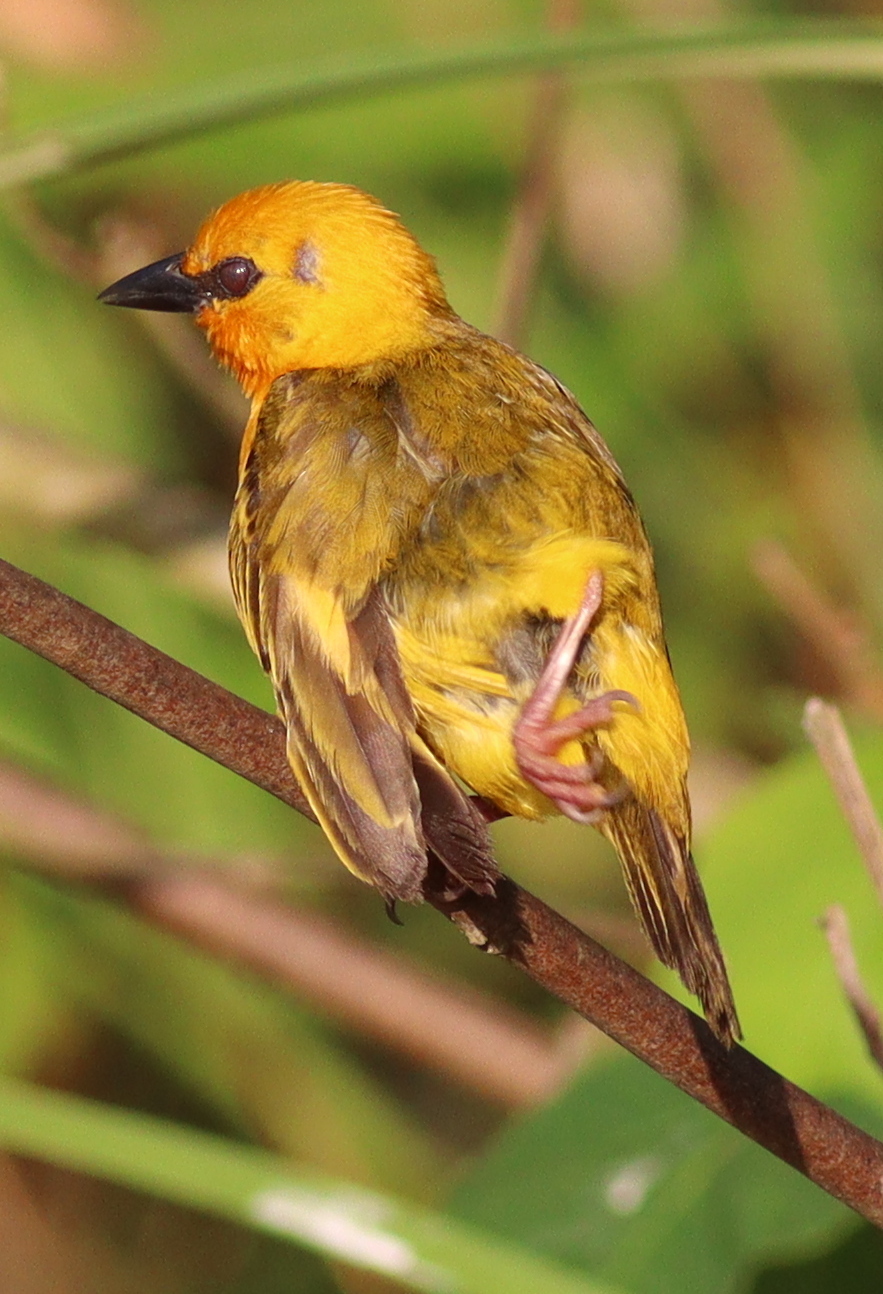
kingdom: Animalia
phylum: Chordata
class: Aves
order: Passeriformes
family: Ploceidae
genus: Ploceus
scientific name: Ploceus aurantius
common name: Orange weaver
